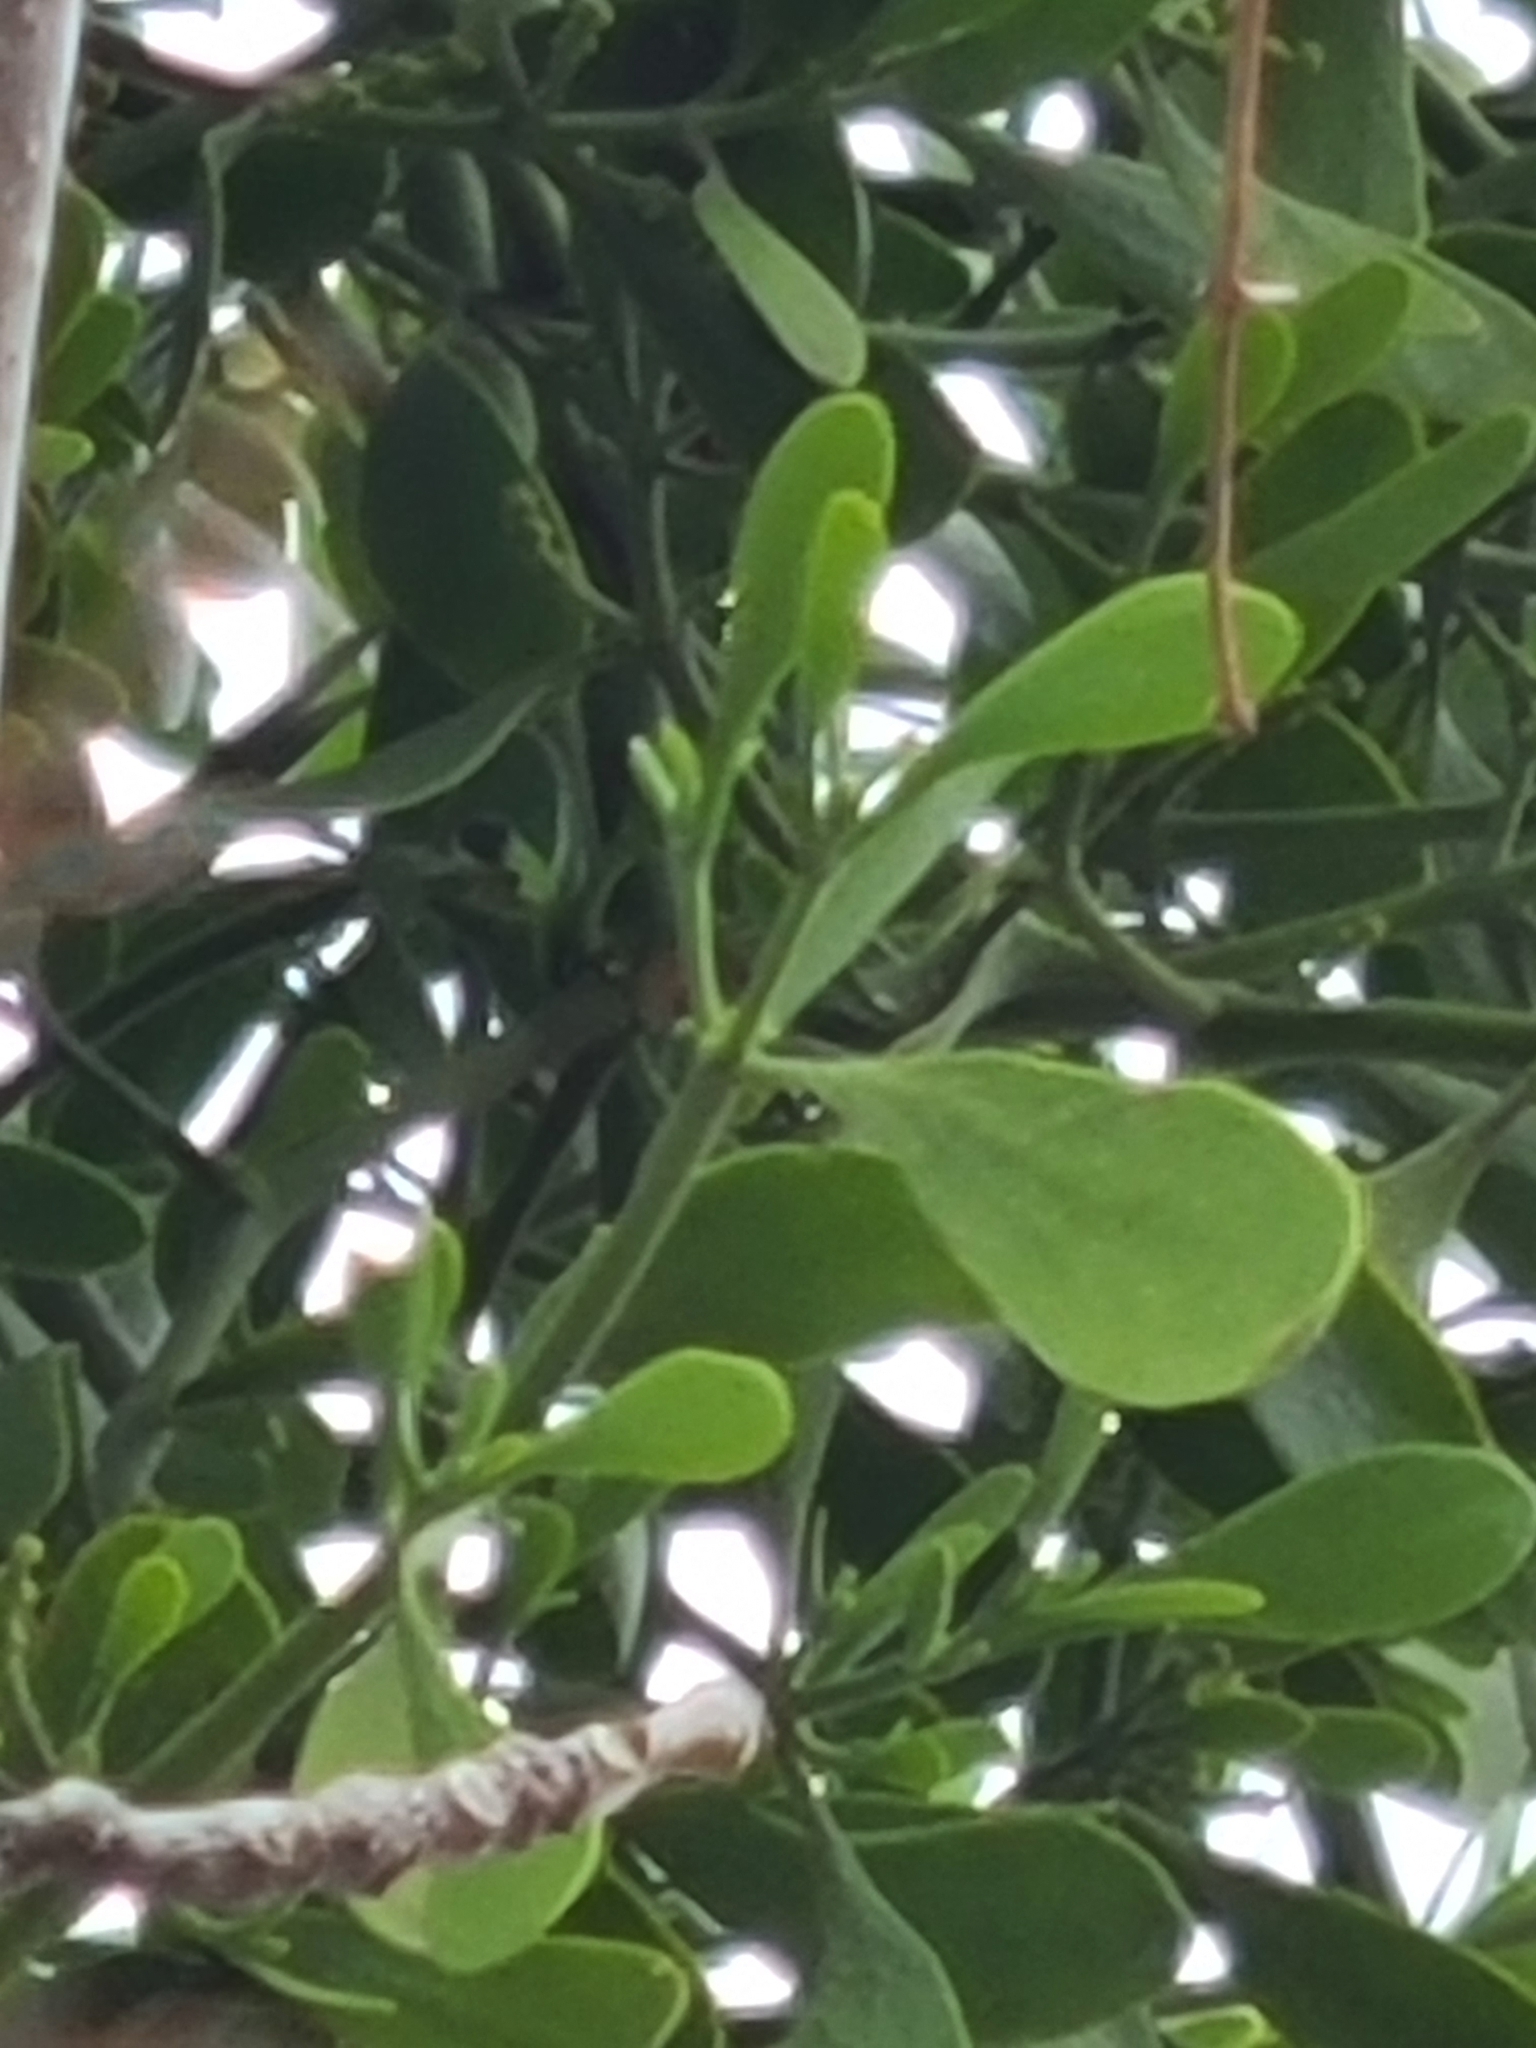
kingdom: Plantae
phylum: Tracheophyta
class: Magnoliopsida
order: Santalales
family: Viscaceae
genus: Phoradendron
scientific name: Phoradendron leucarpum
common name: Pacific mistletoe
